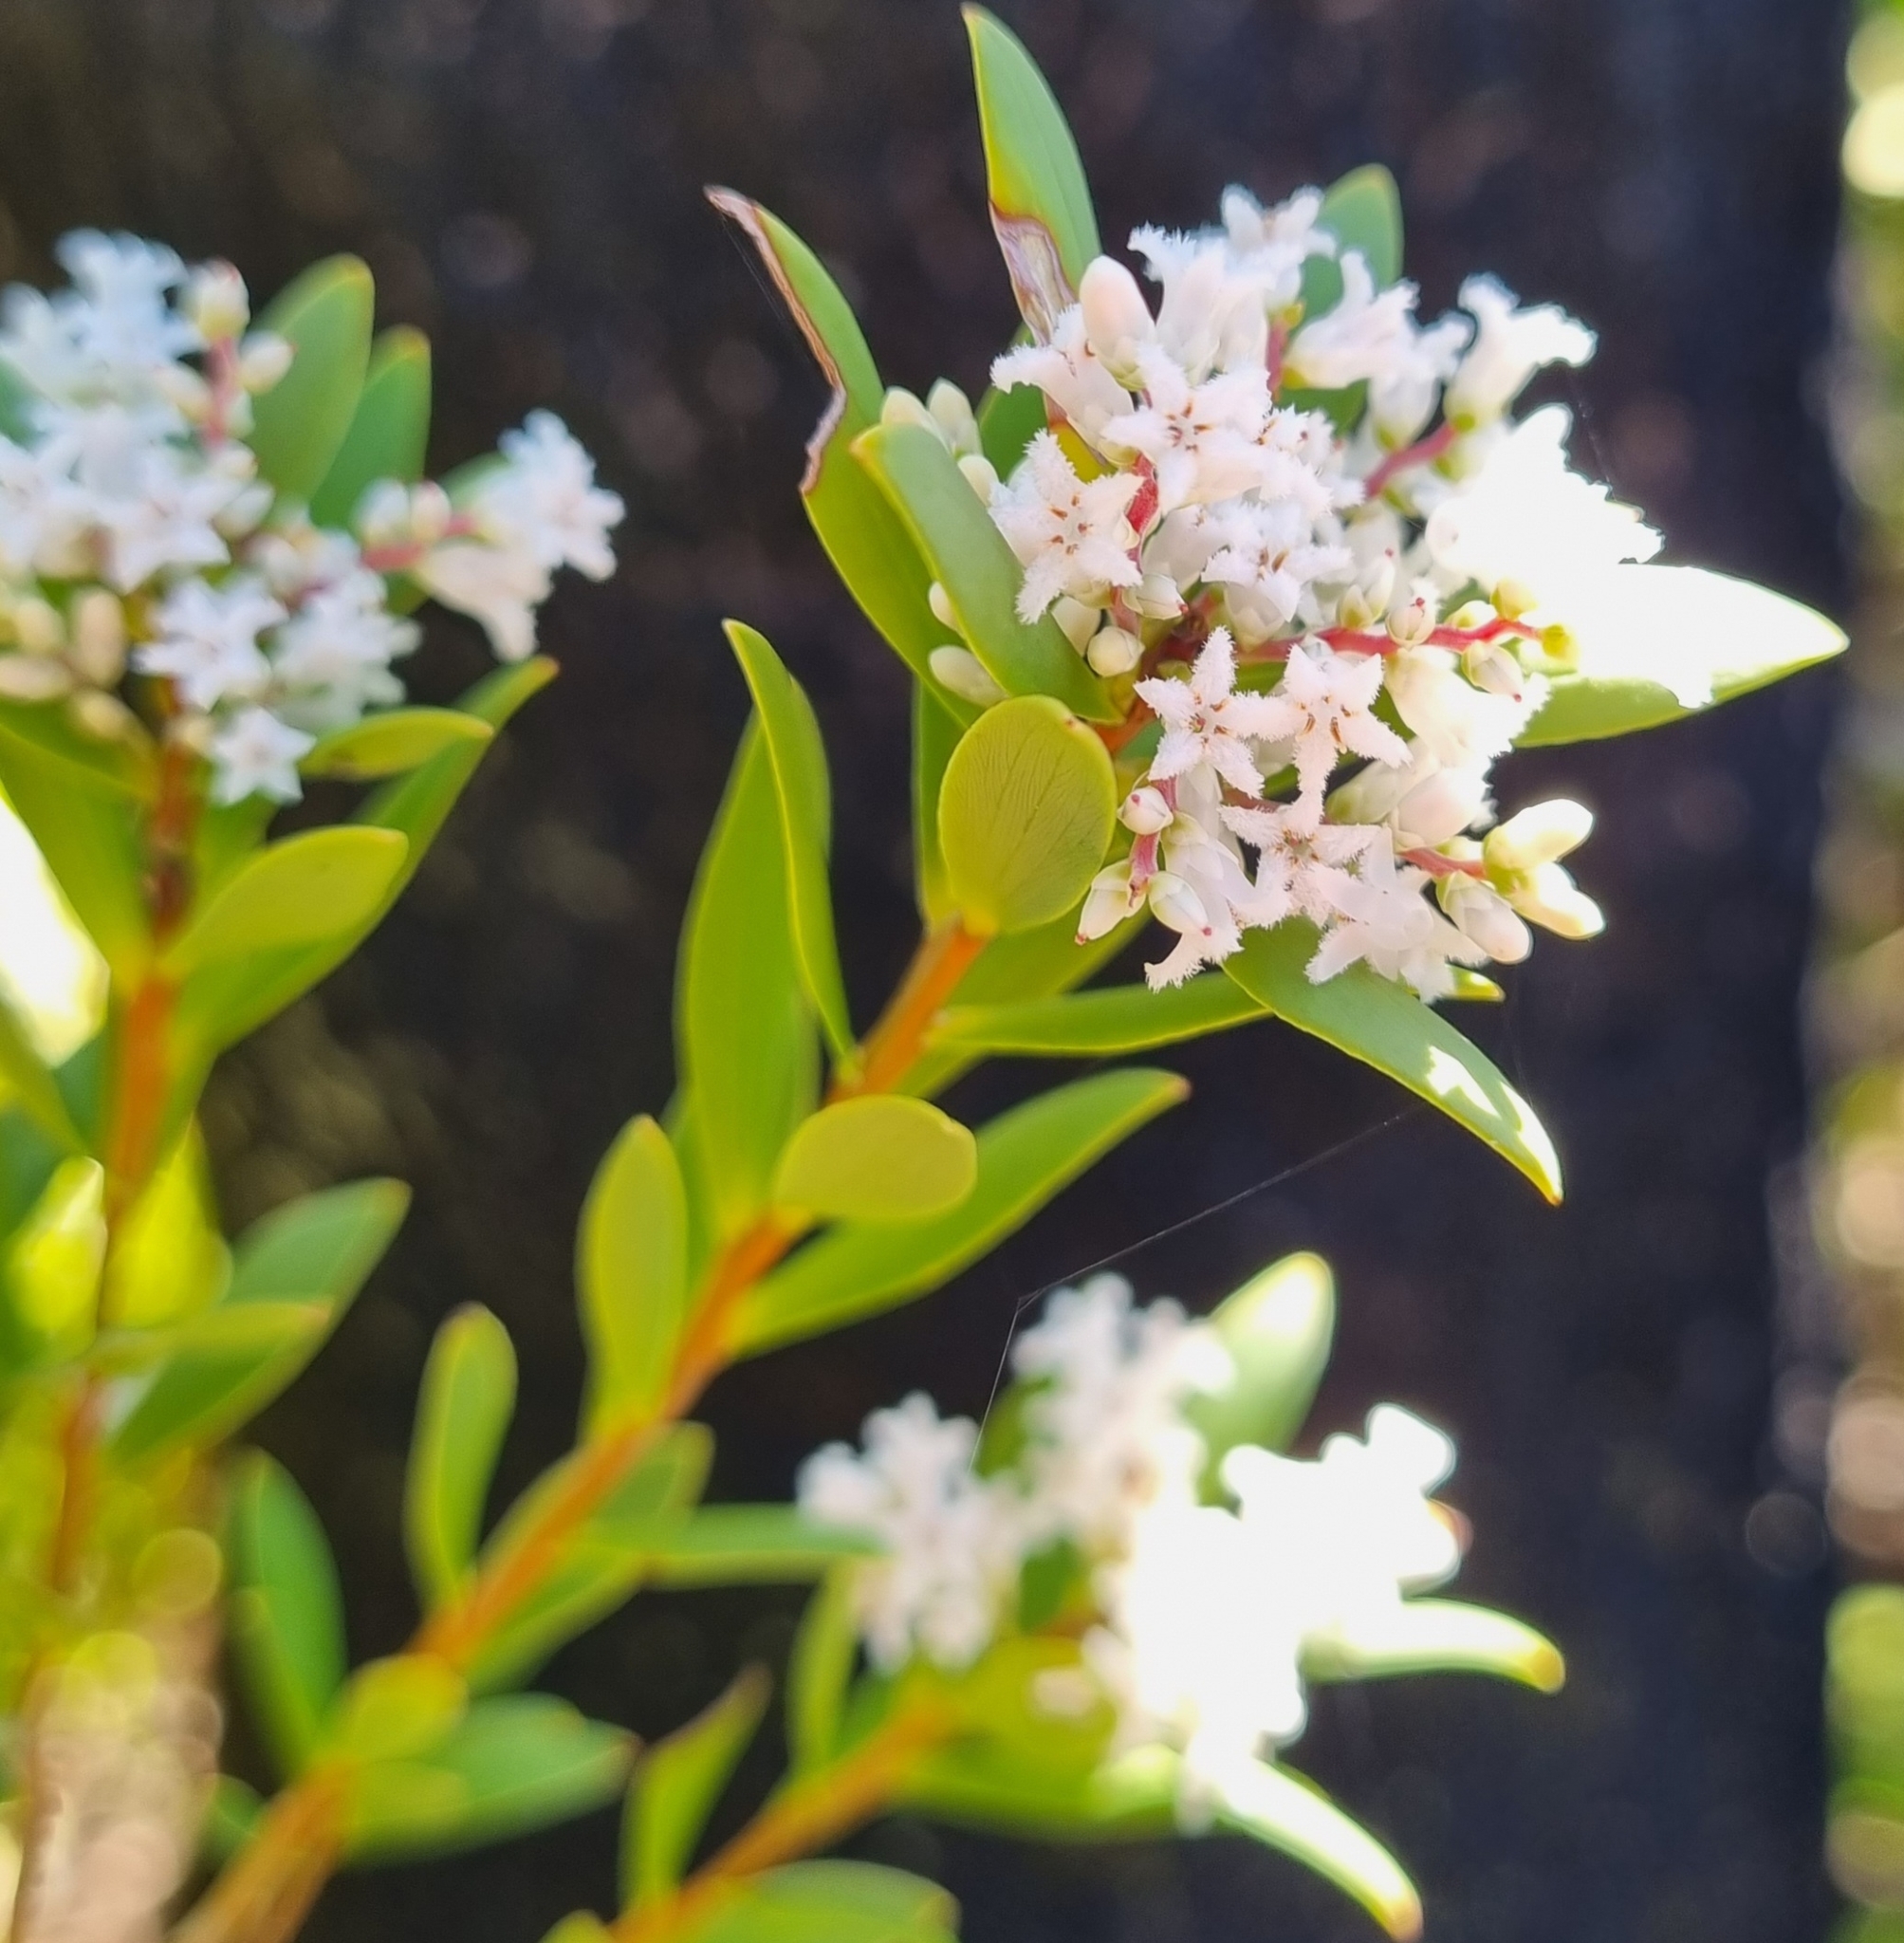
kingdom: Plantae
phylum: Tracheophyta
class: Magnoliopsida
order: Ericales
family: Ericaceae
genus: Leptecophylla
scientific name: Leptecophylla parvifolia
